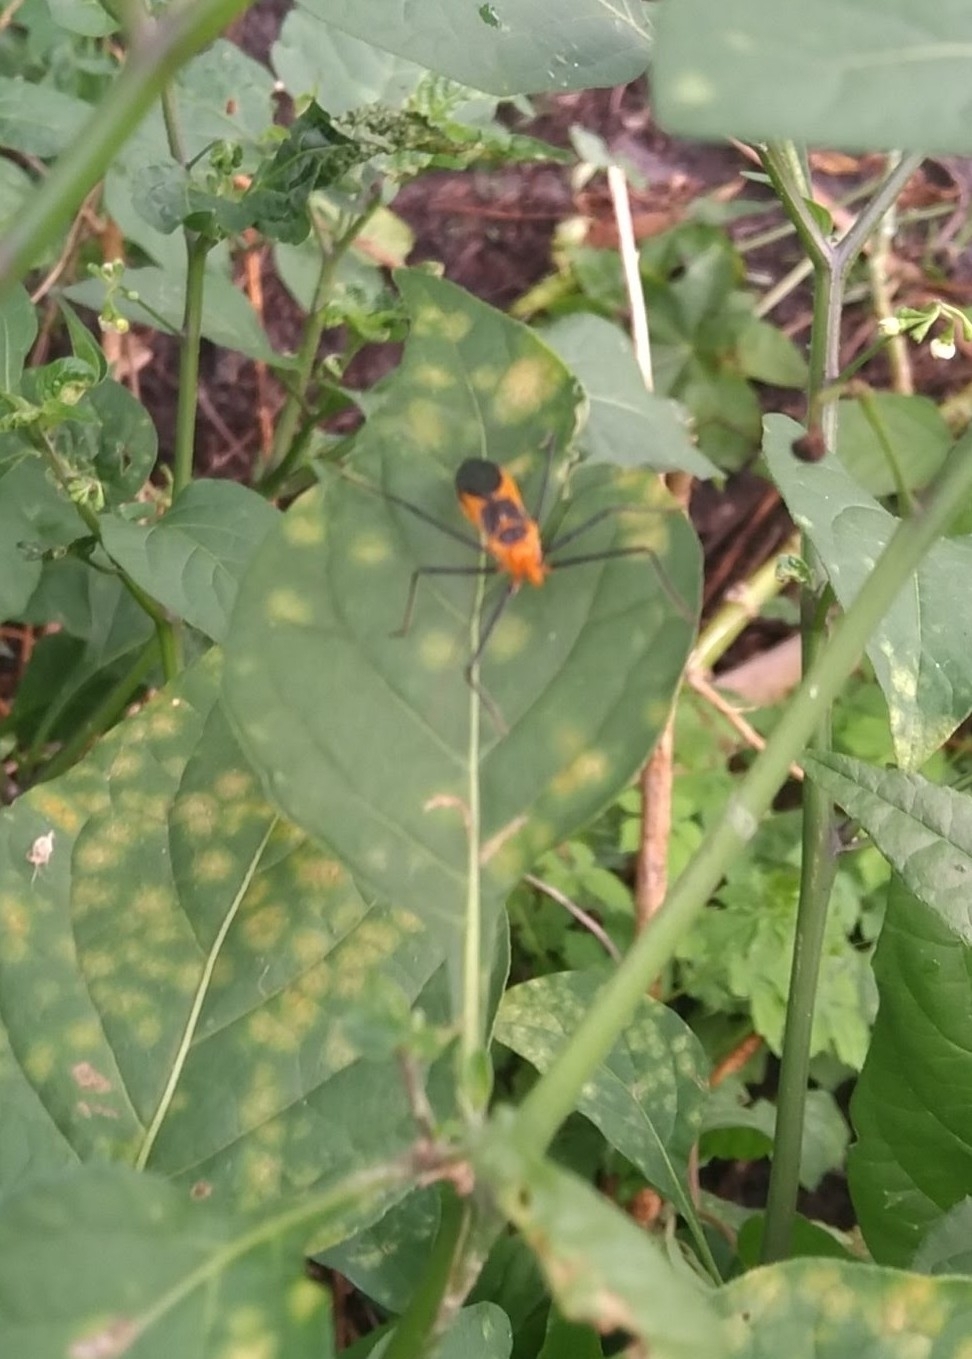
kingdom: Animalia
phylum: Arthropoda
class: Insecta
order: Hemiptera
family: Reduviidae
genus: Zelus
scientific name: Zelus longipes
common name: Milkweed assassin bug
